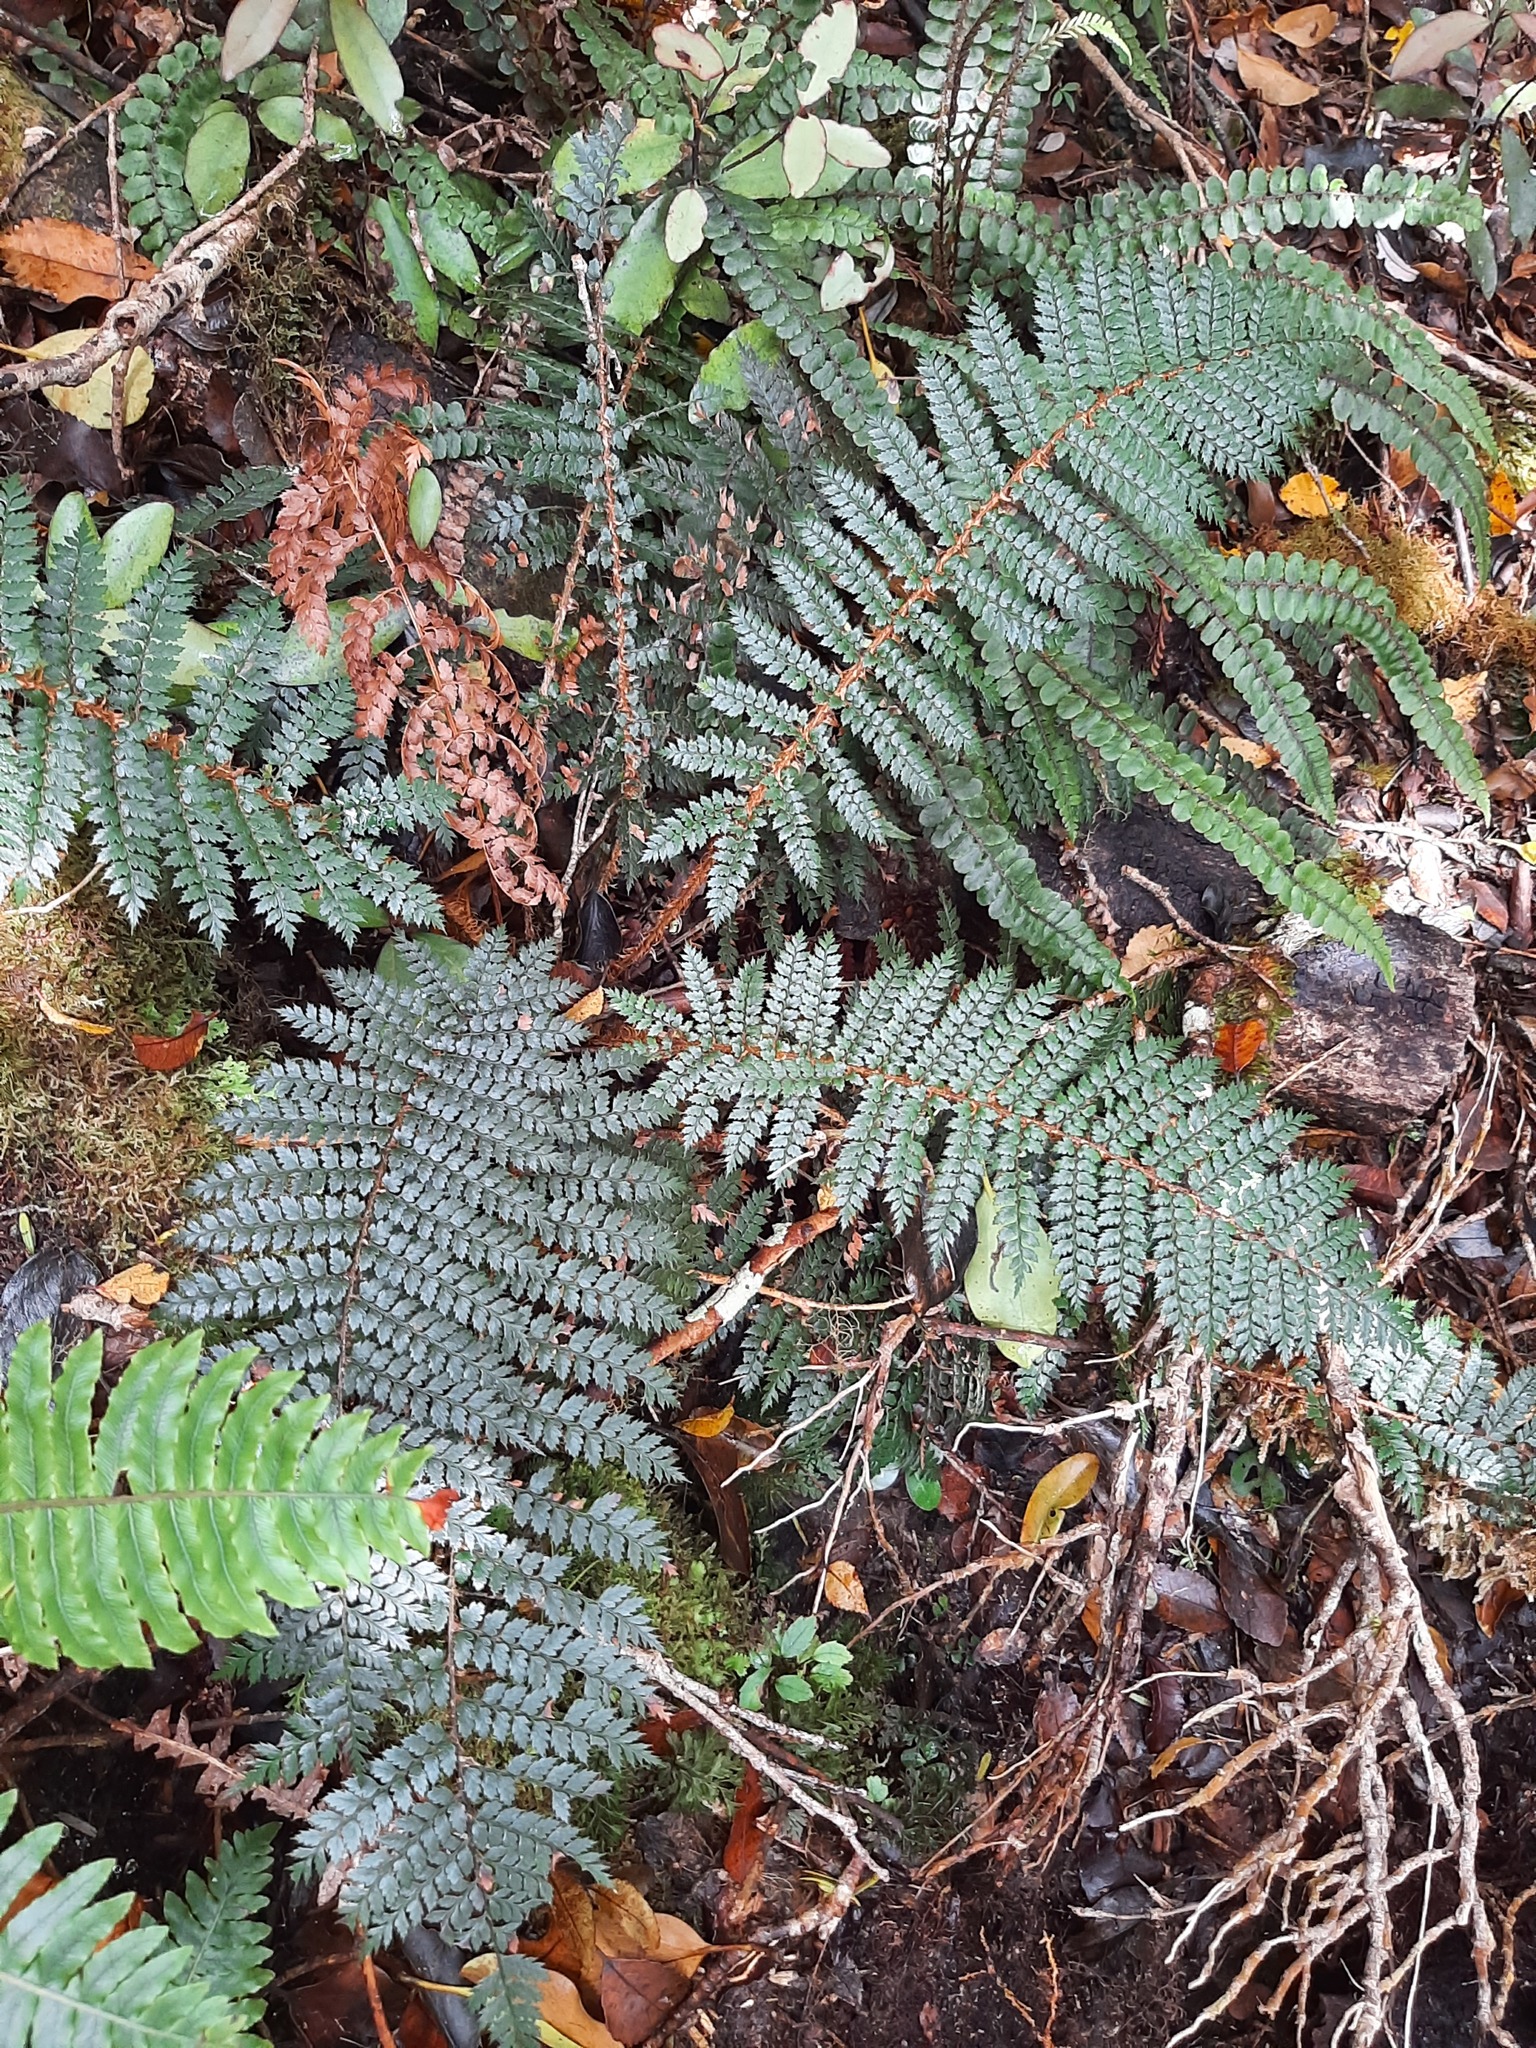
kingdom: Plantae
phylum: Tracheophyta
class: Polypodiopsida
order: Polypodiales
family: Dryopteridaceae
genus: Polystichum
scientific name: Polystichum vestitum
